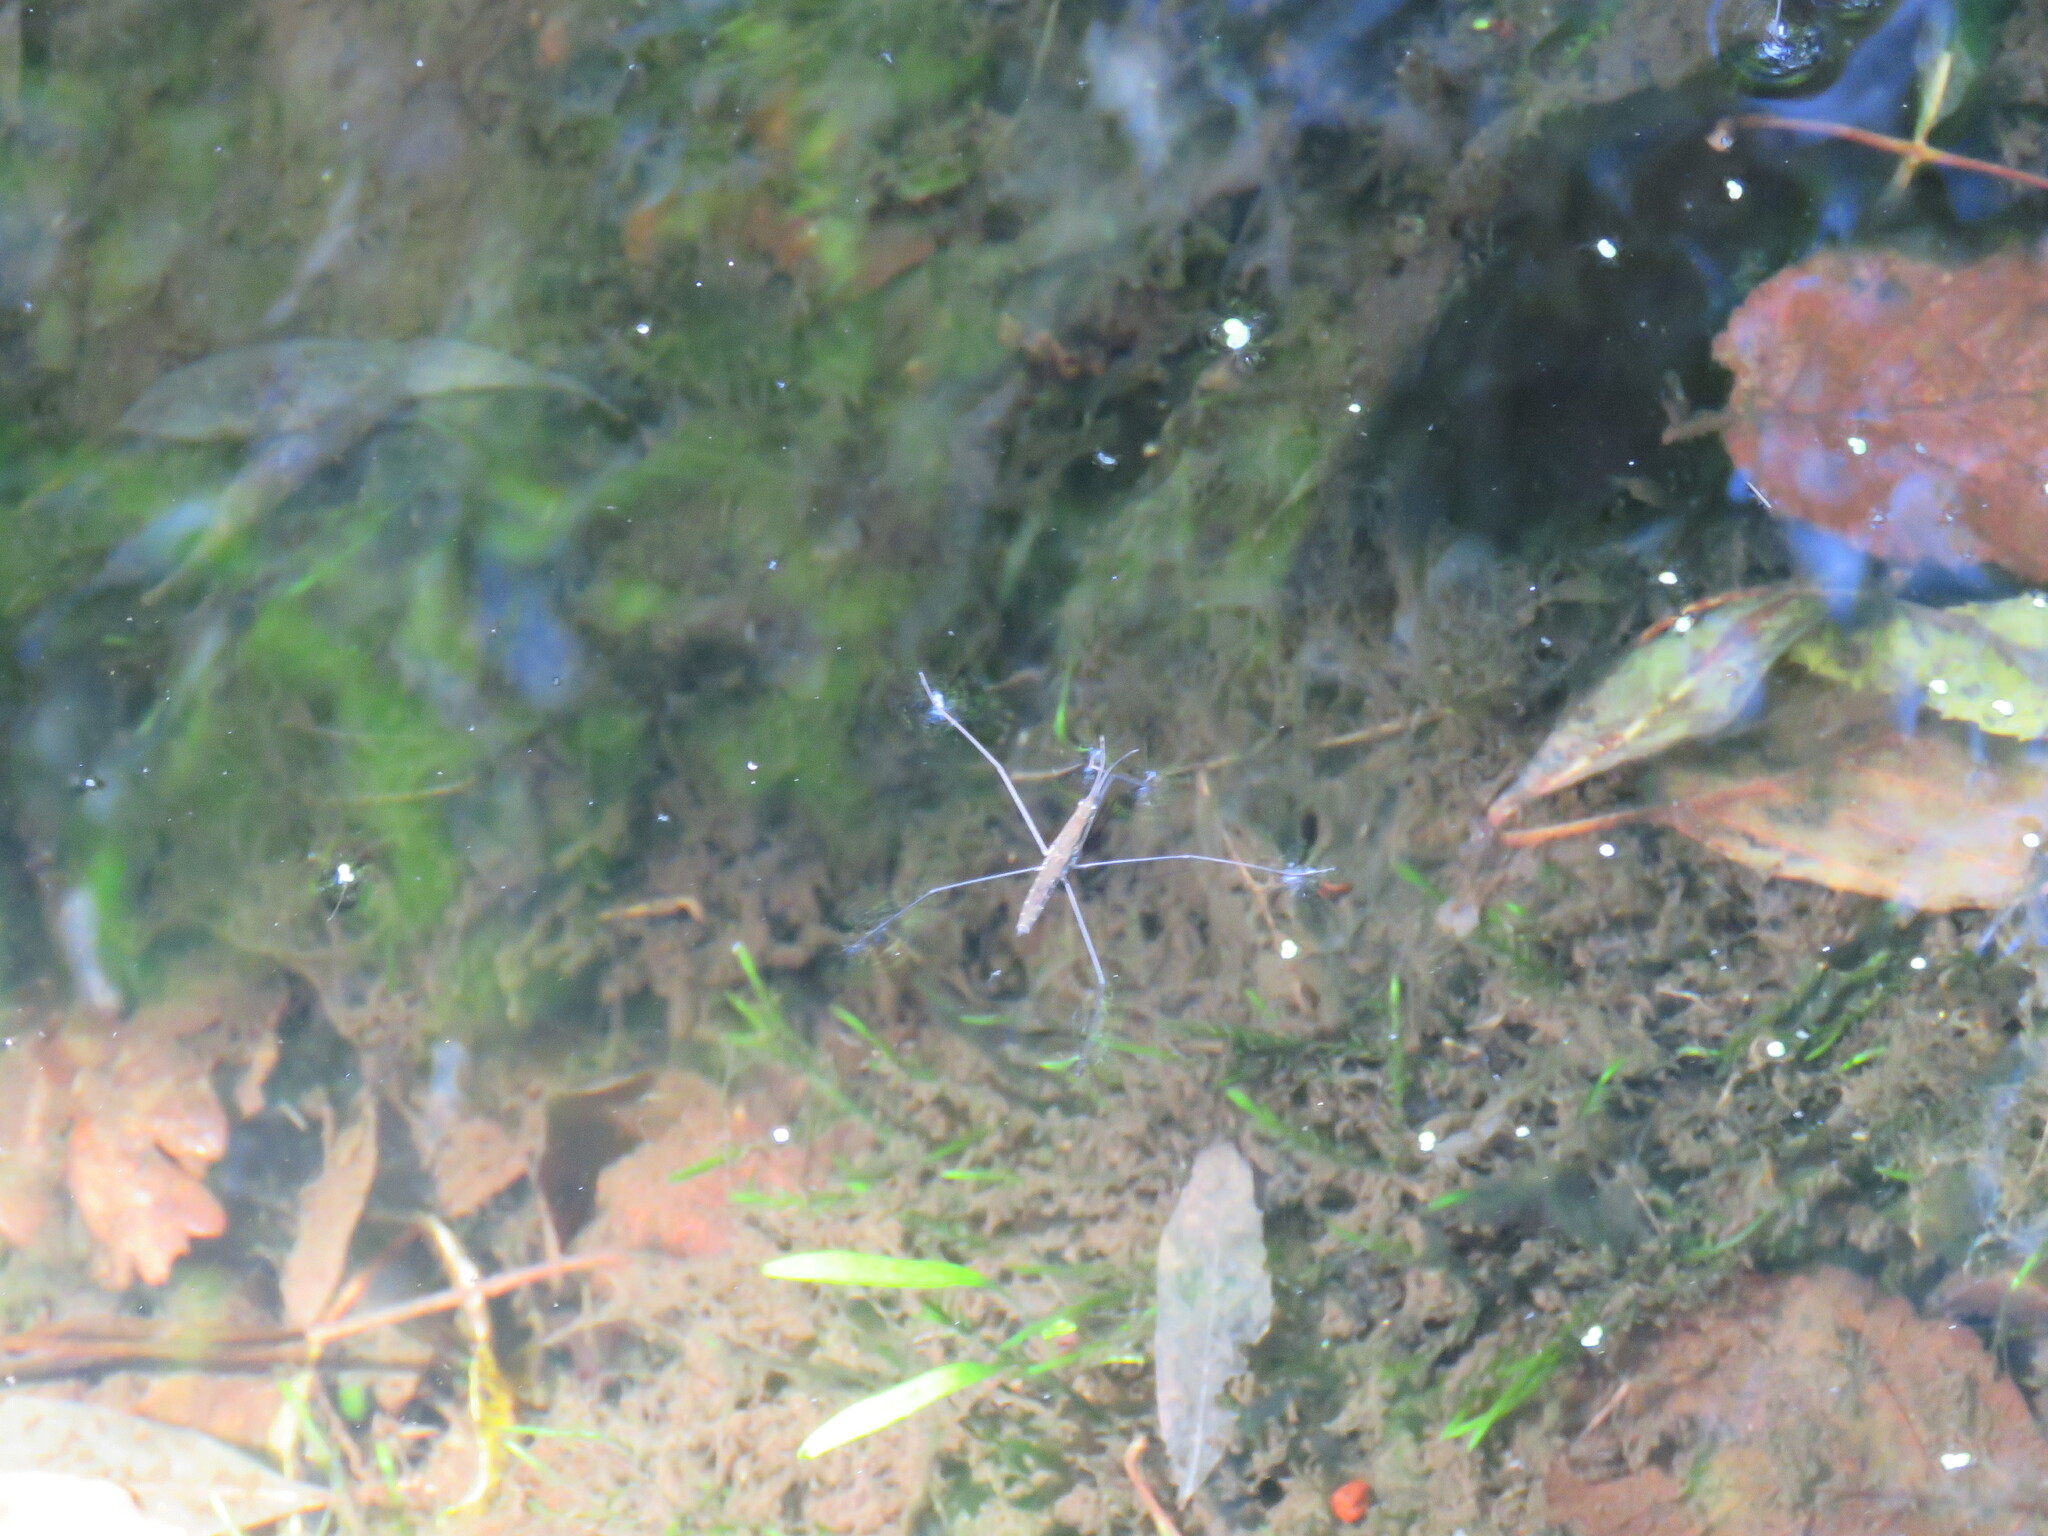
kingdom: Animalia
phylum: Arthropoda
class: Insecta
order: Hemiptera
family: Gerridae
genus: Aquarius
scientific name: Aquarius najas
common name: River skater
